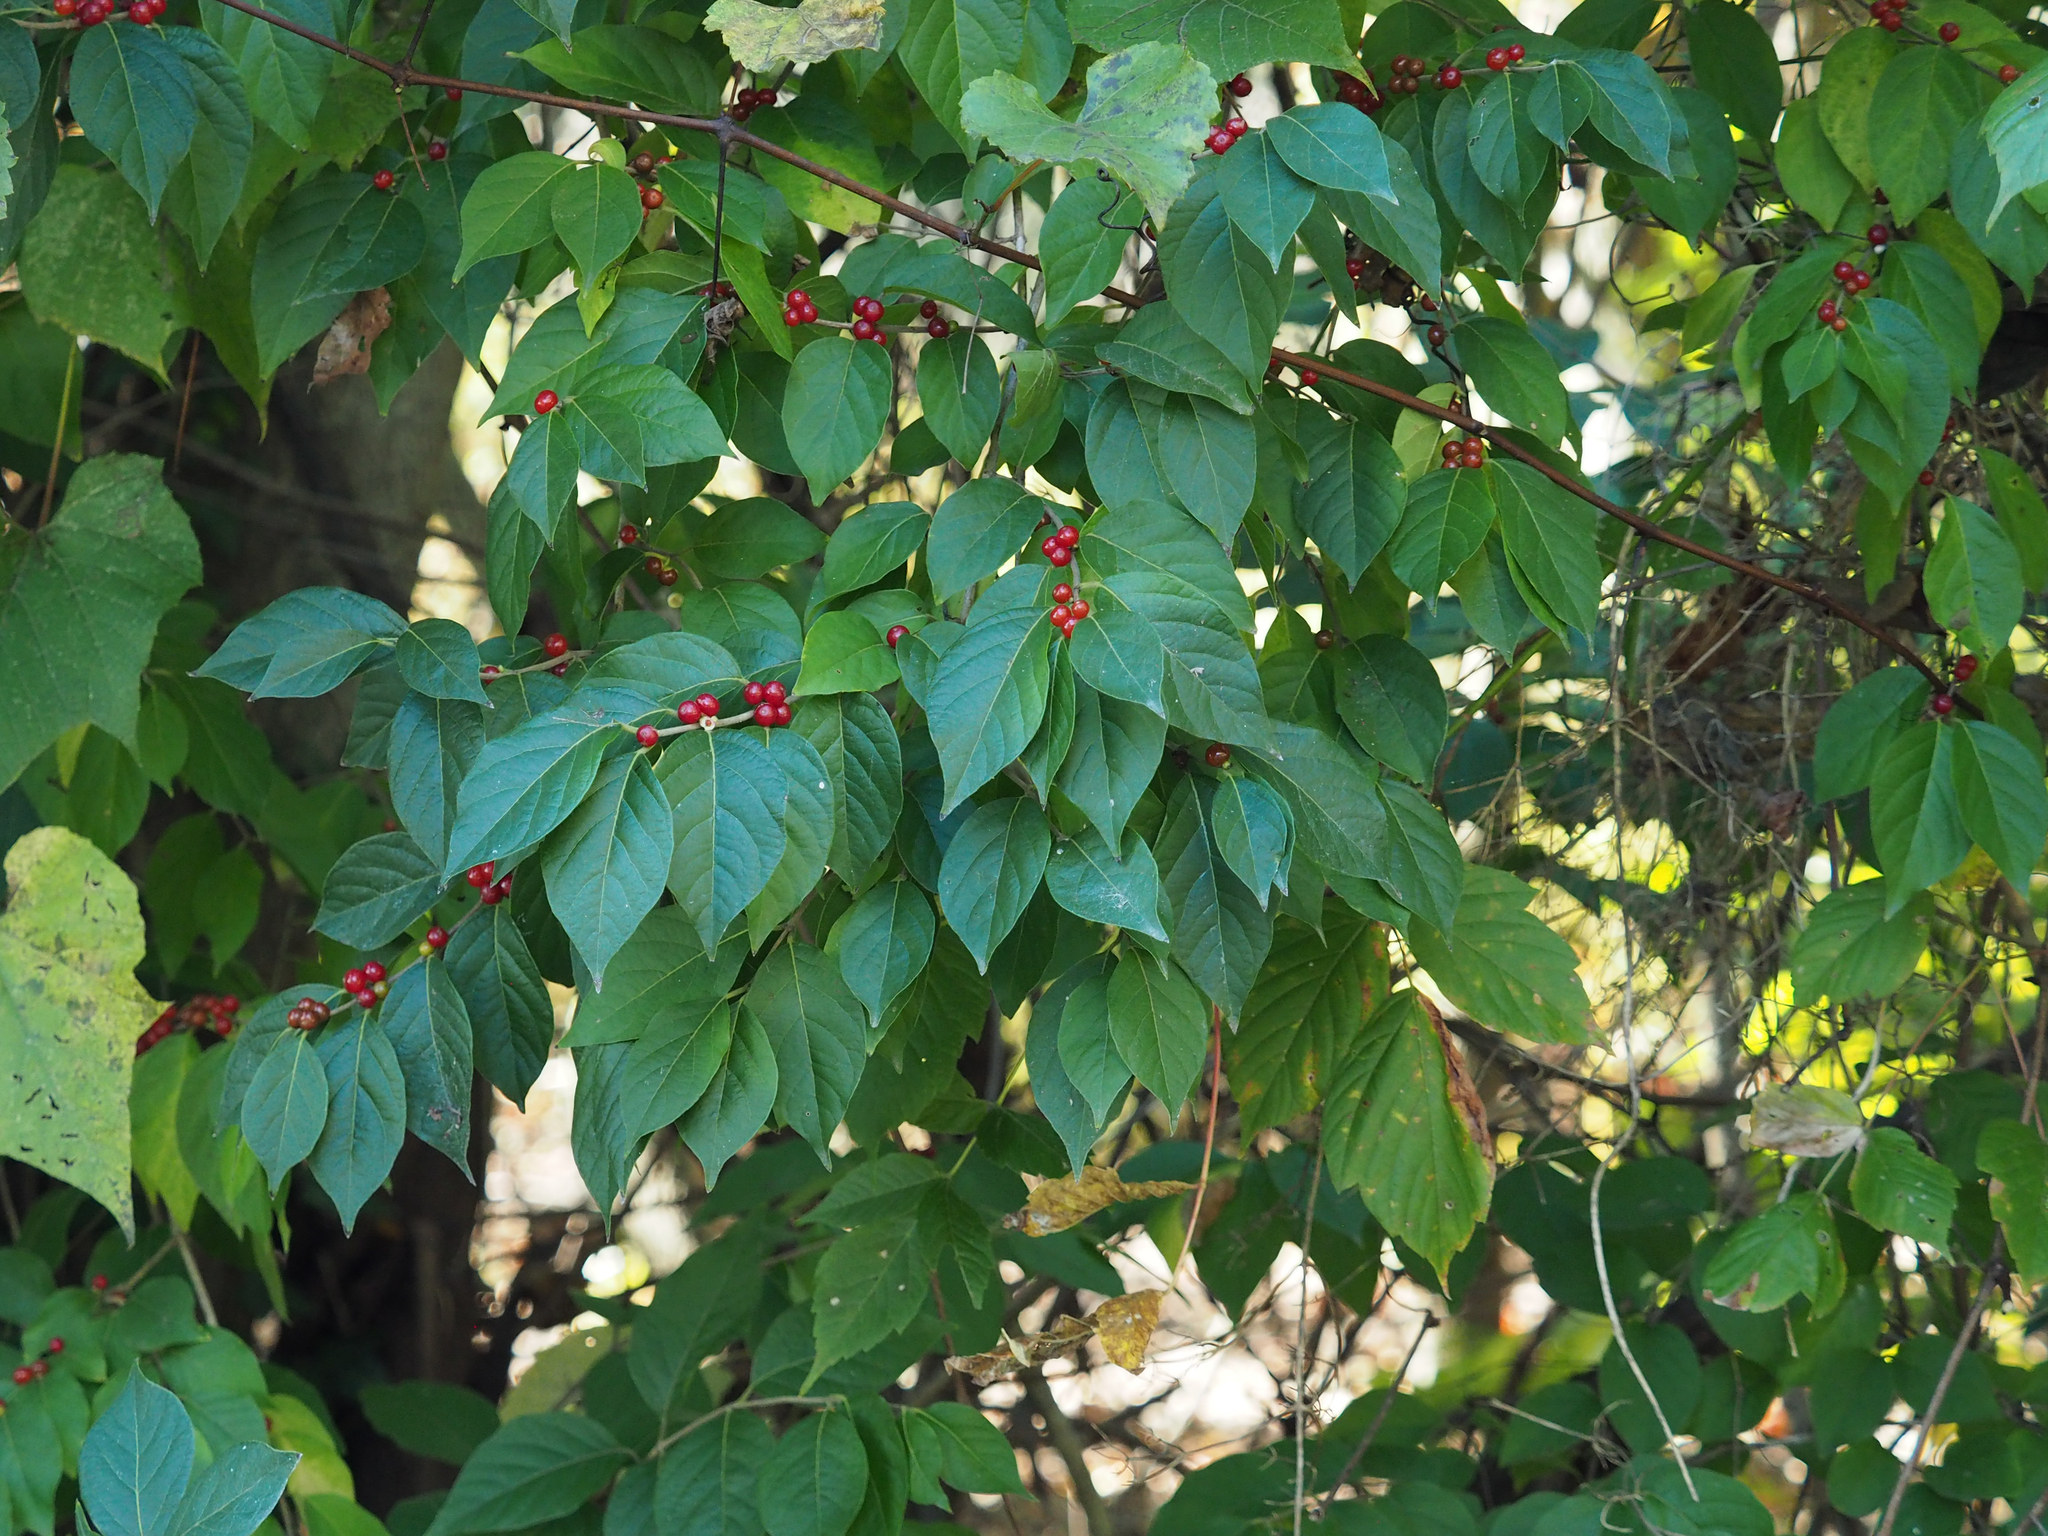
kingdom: Plantae
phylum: Tracheophyta
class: Magnoliopsida
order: Dipsacales
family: Caprifoliaceae
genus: Lonicera
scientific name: Lonicera maackii
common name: Amur honeysuckle
